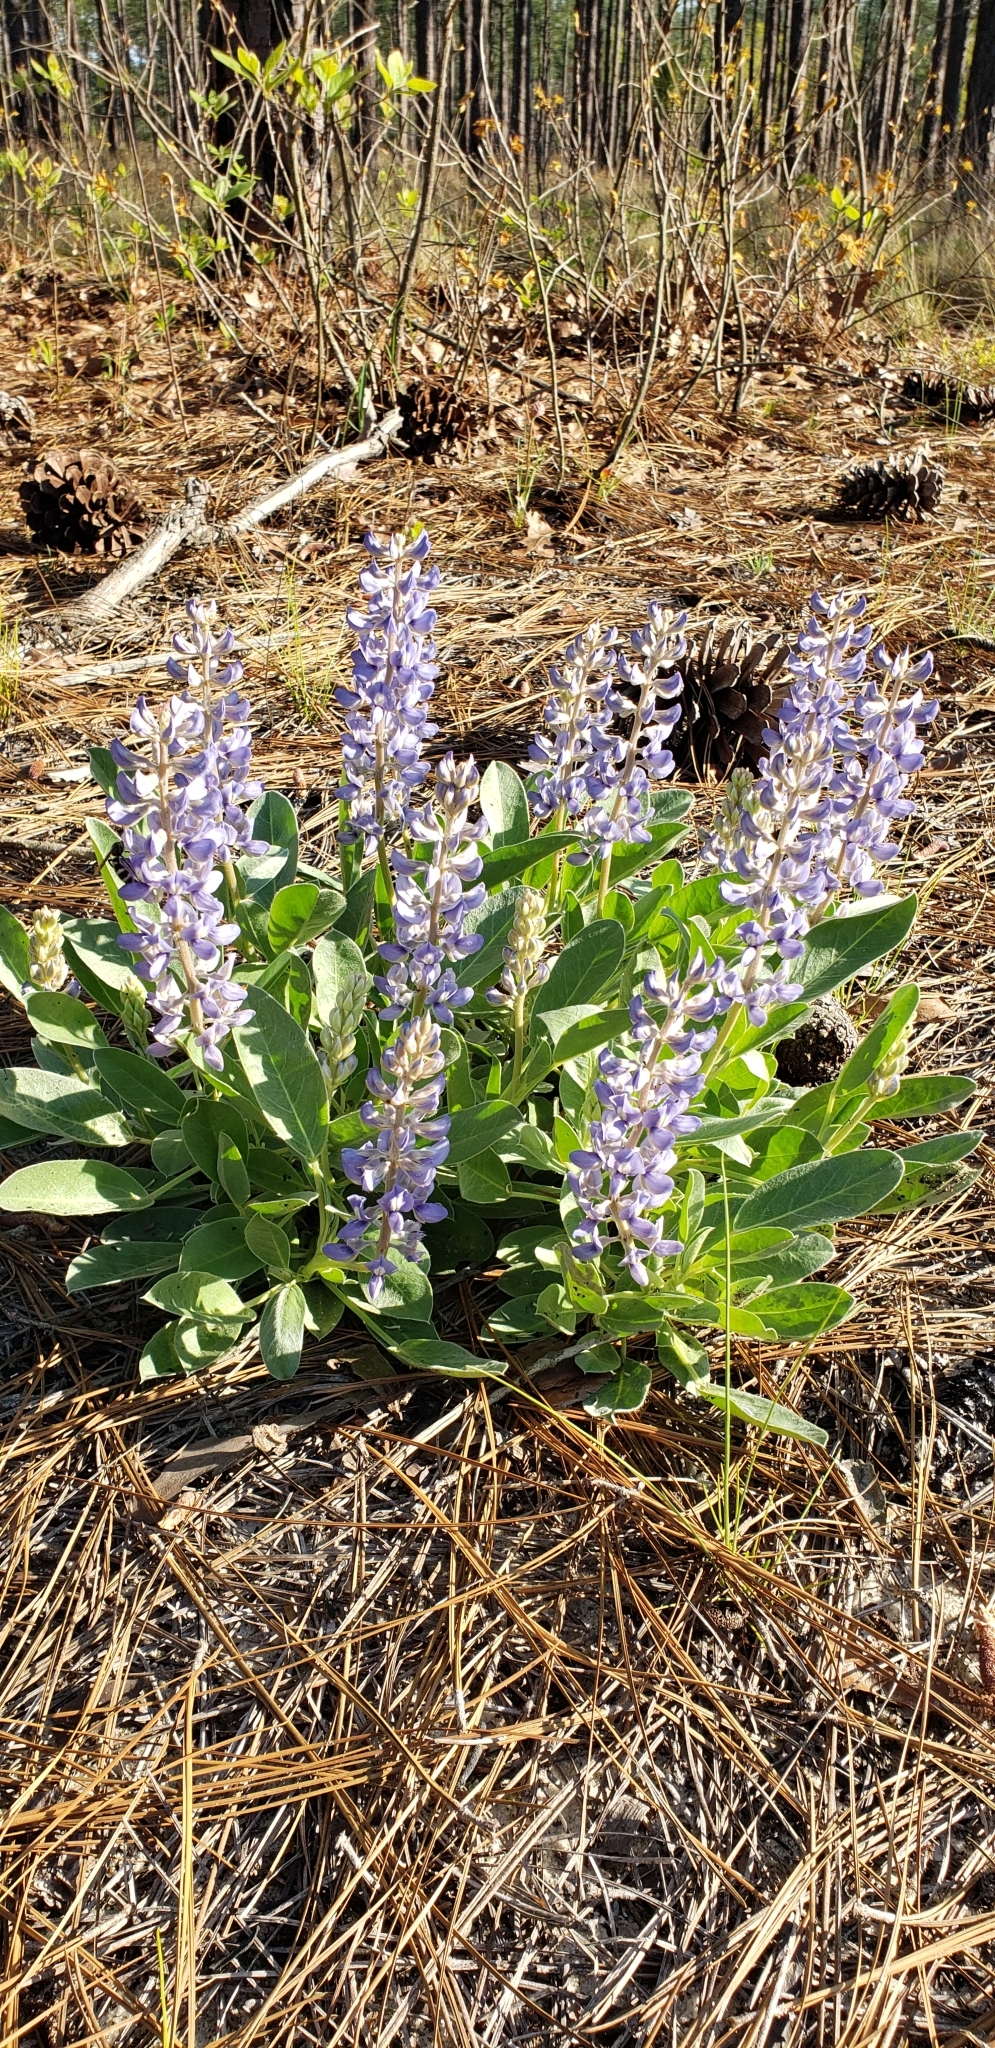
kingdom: Plantae
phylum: Tracheophyta
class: Magnoliopsida
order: Fabales
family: Fabaceae
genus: Lupinus
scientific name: Lupinus diffusus
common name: Oak ridge lupine
